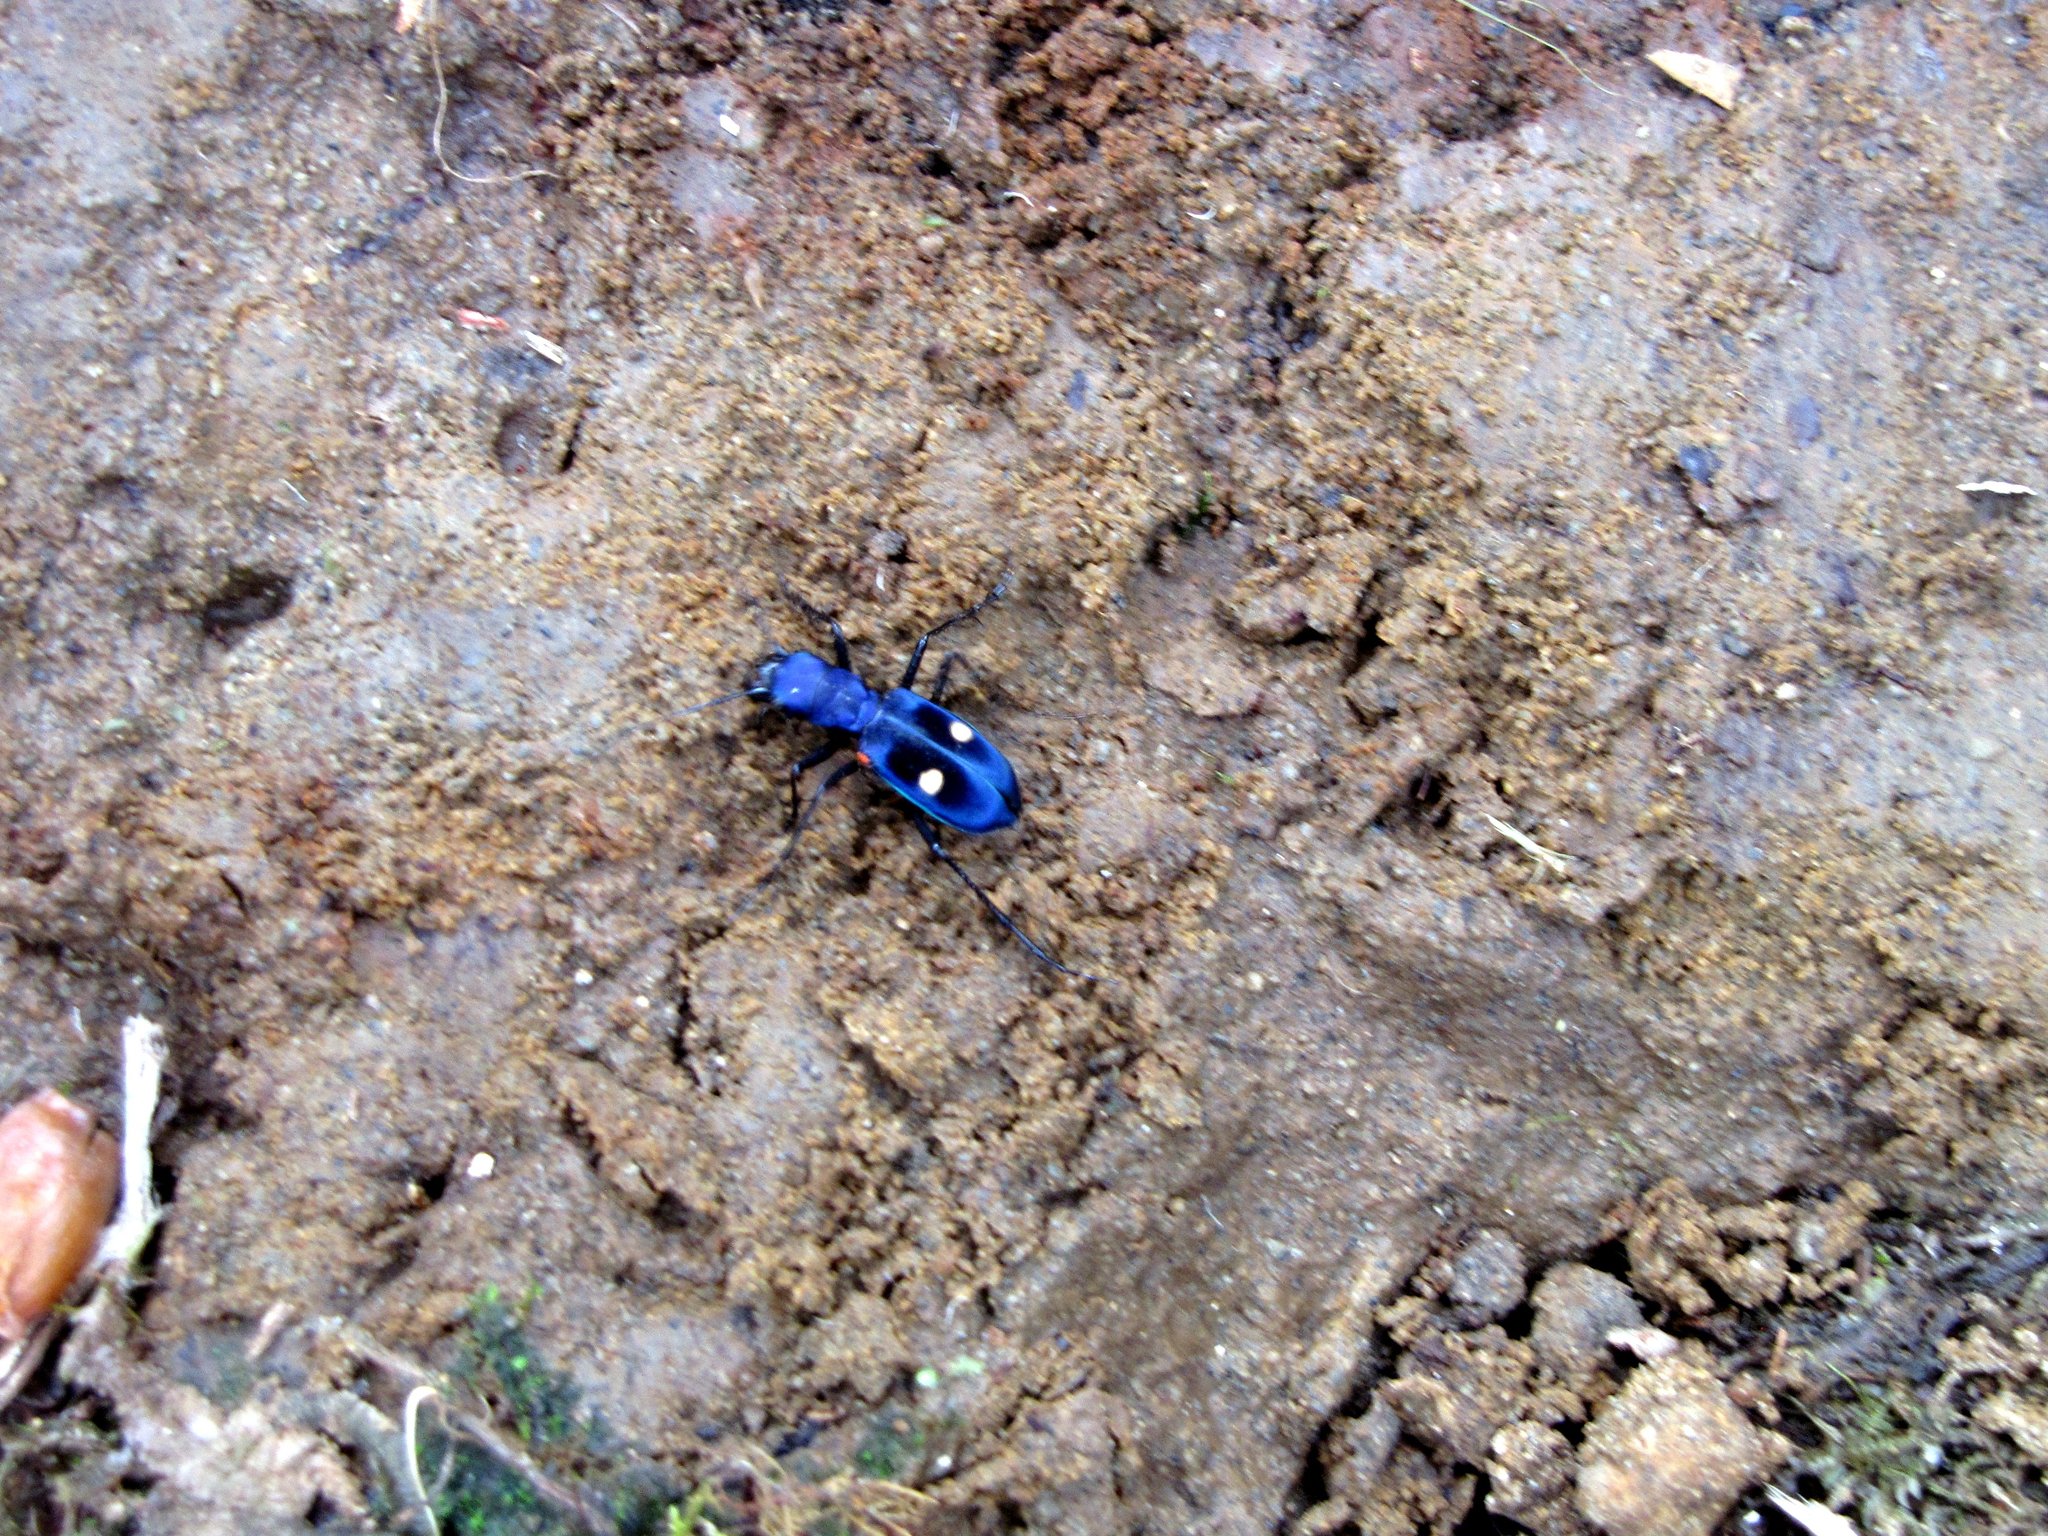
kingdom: Animalia
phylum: Arthropoda
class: Insecta
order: Coleoptera
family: Carabidae
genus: Pseudoxycheila
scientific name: Pseudoxycheila tarsalis
